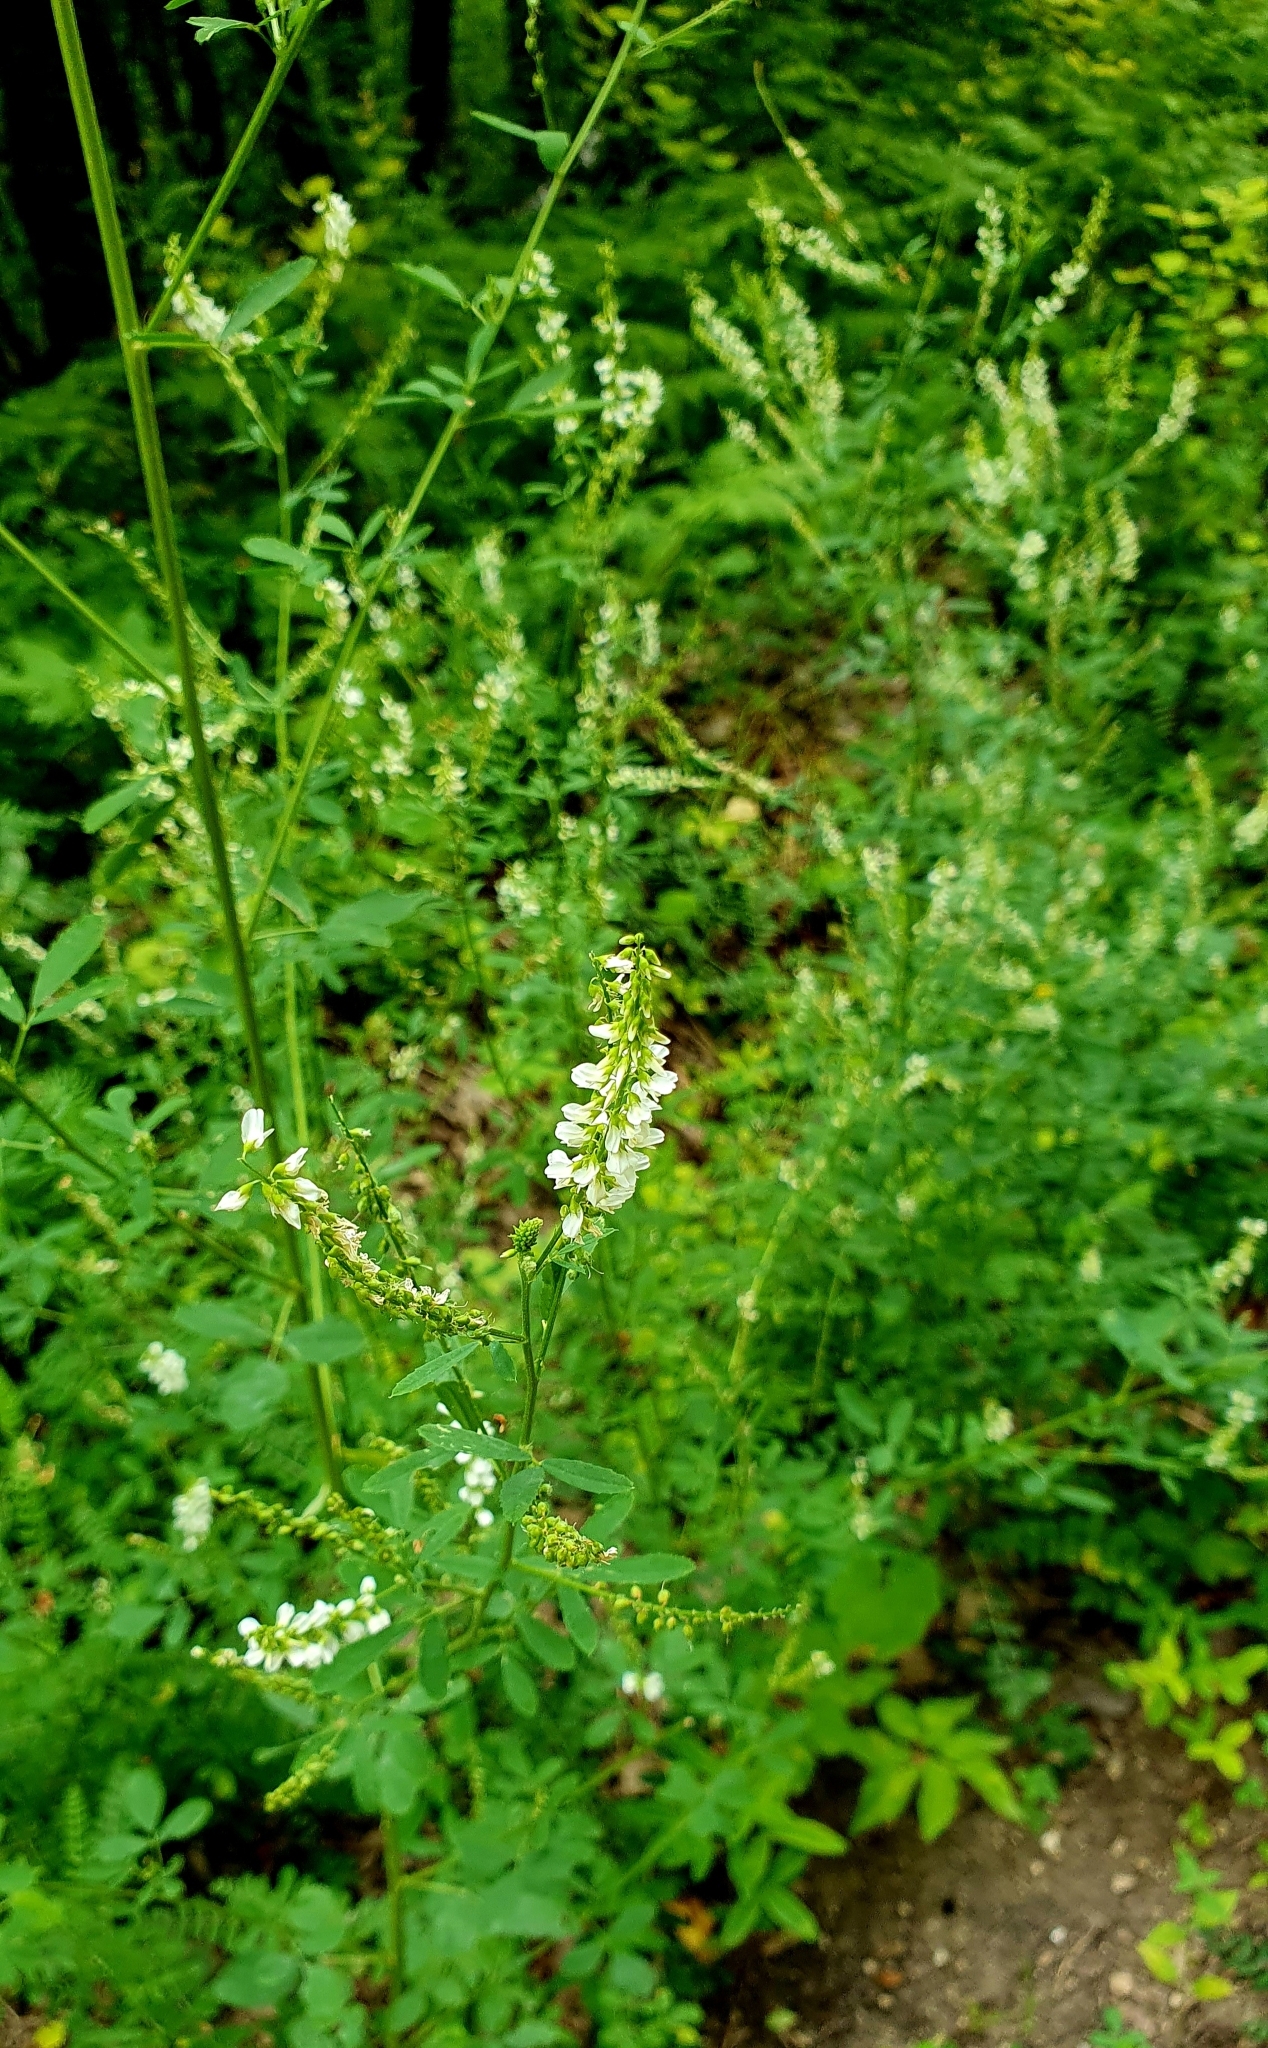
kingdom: Plantae
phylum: Tracheophyta
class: Magnoliopsida
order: Fabales
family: Fabaceae
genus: Melilotus
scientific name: Melilotus albus
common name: White melilot
